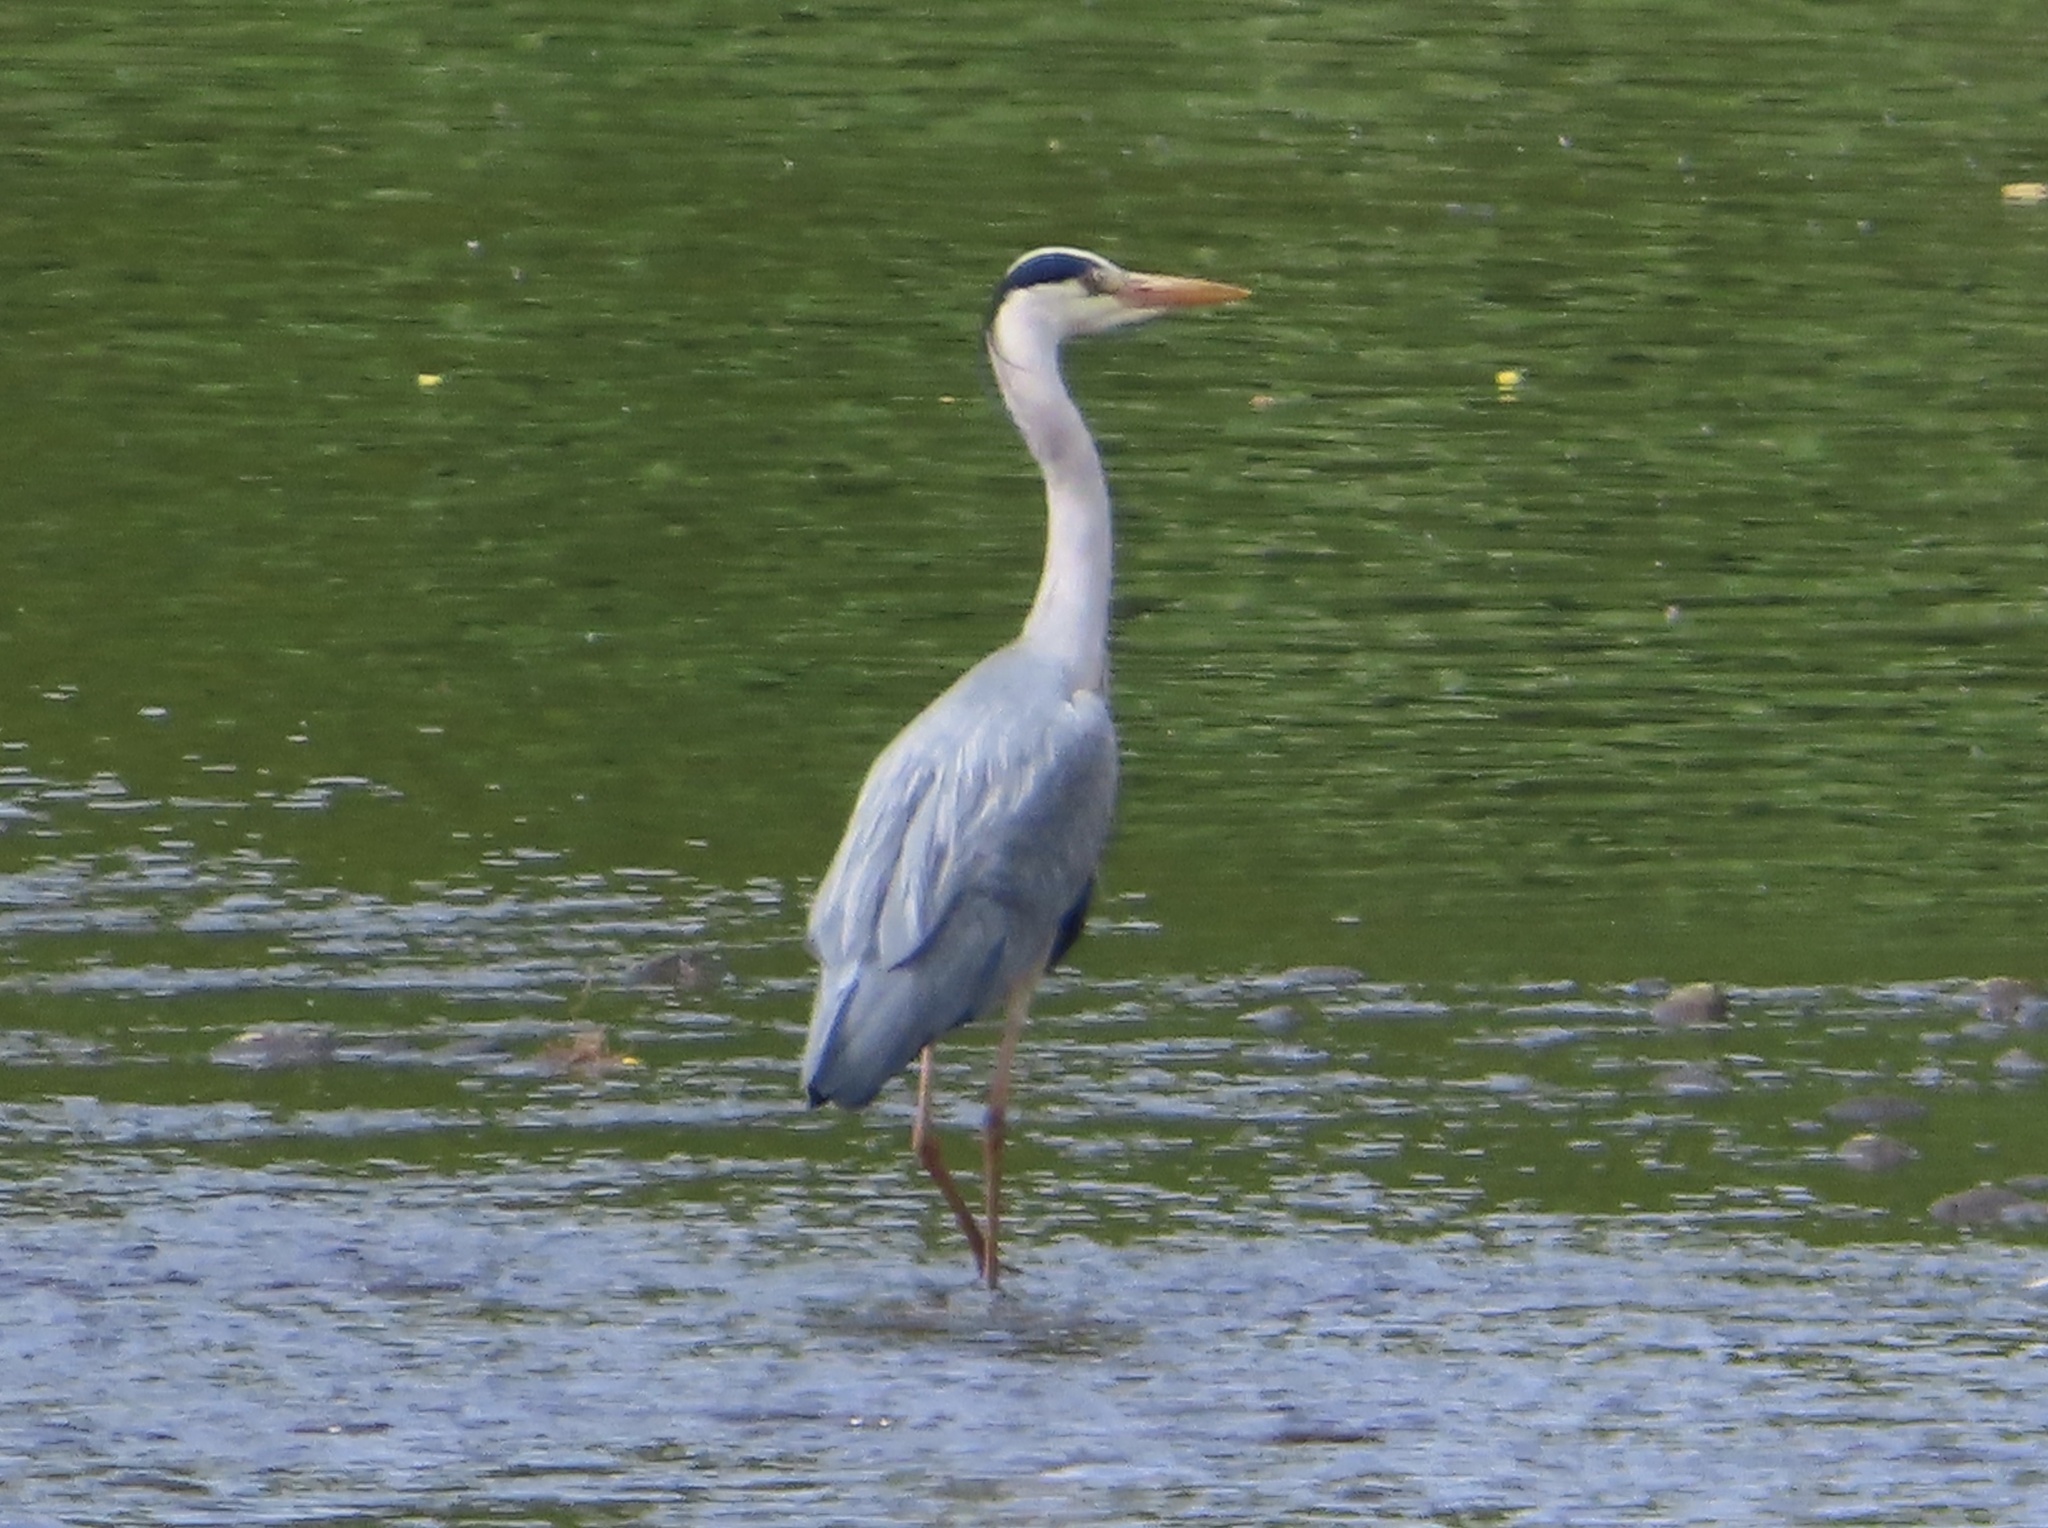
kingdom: Animalia
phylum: Chordata
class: Aves
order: Pelecaniformes
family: Ardeidae
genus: Ardea
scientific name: Ardea cinerea
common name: Grey heron
